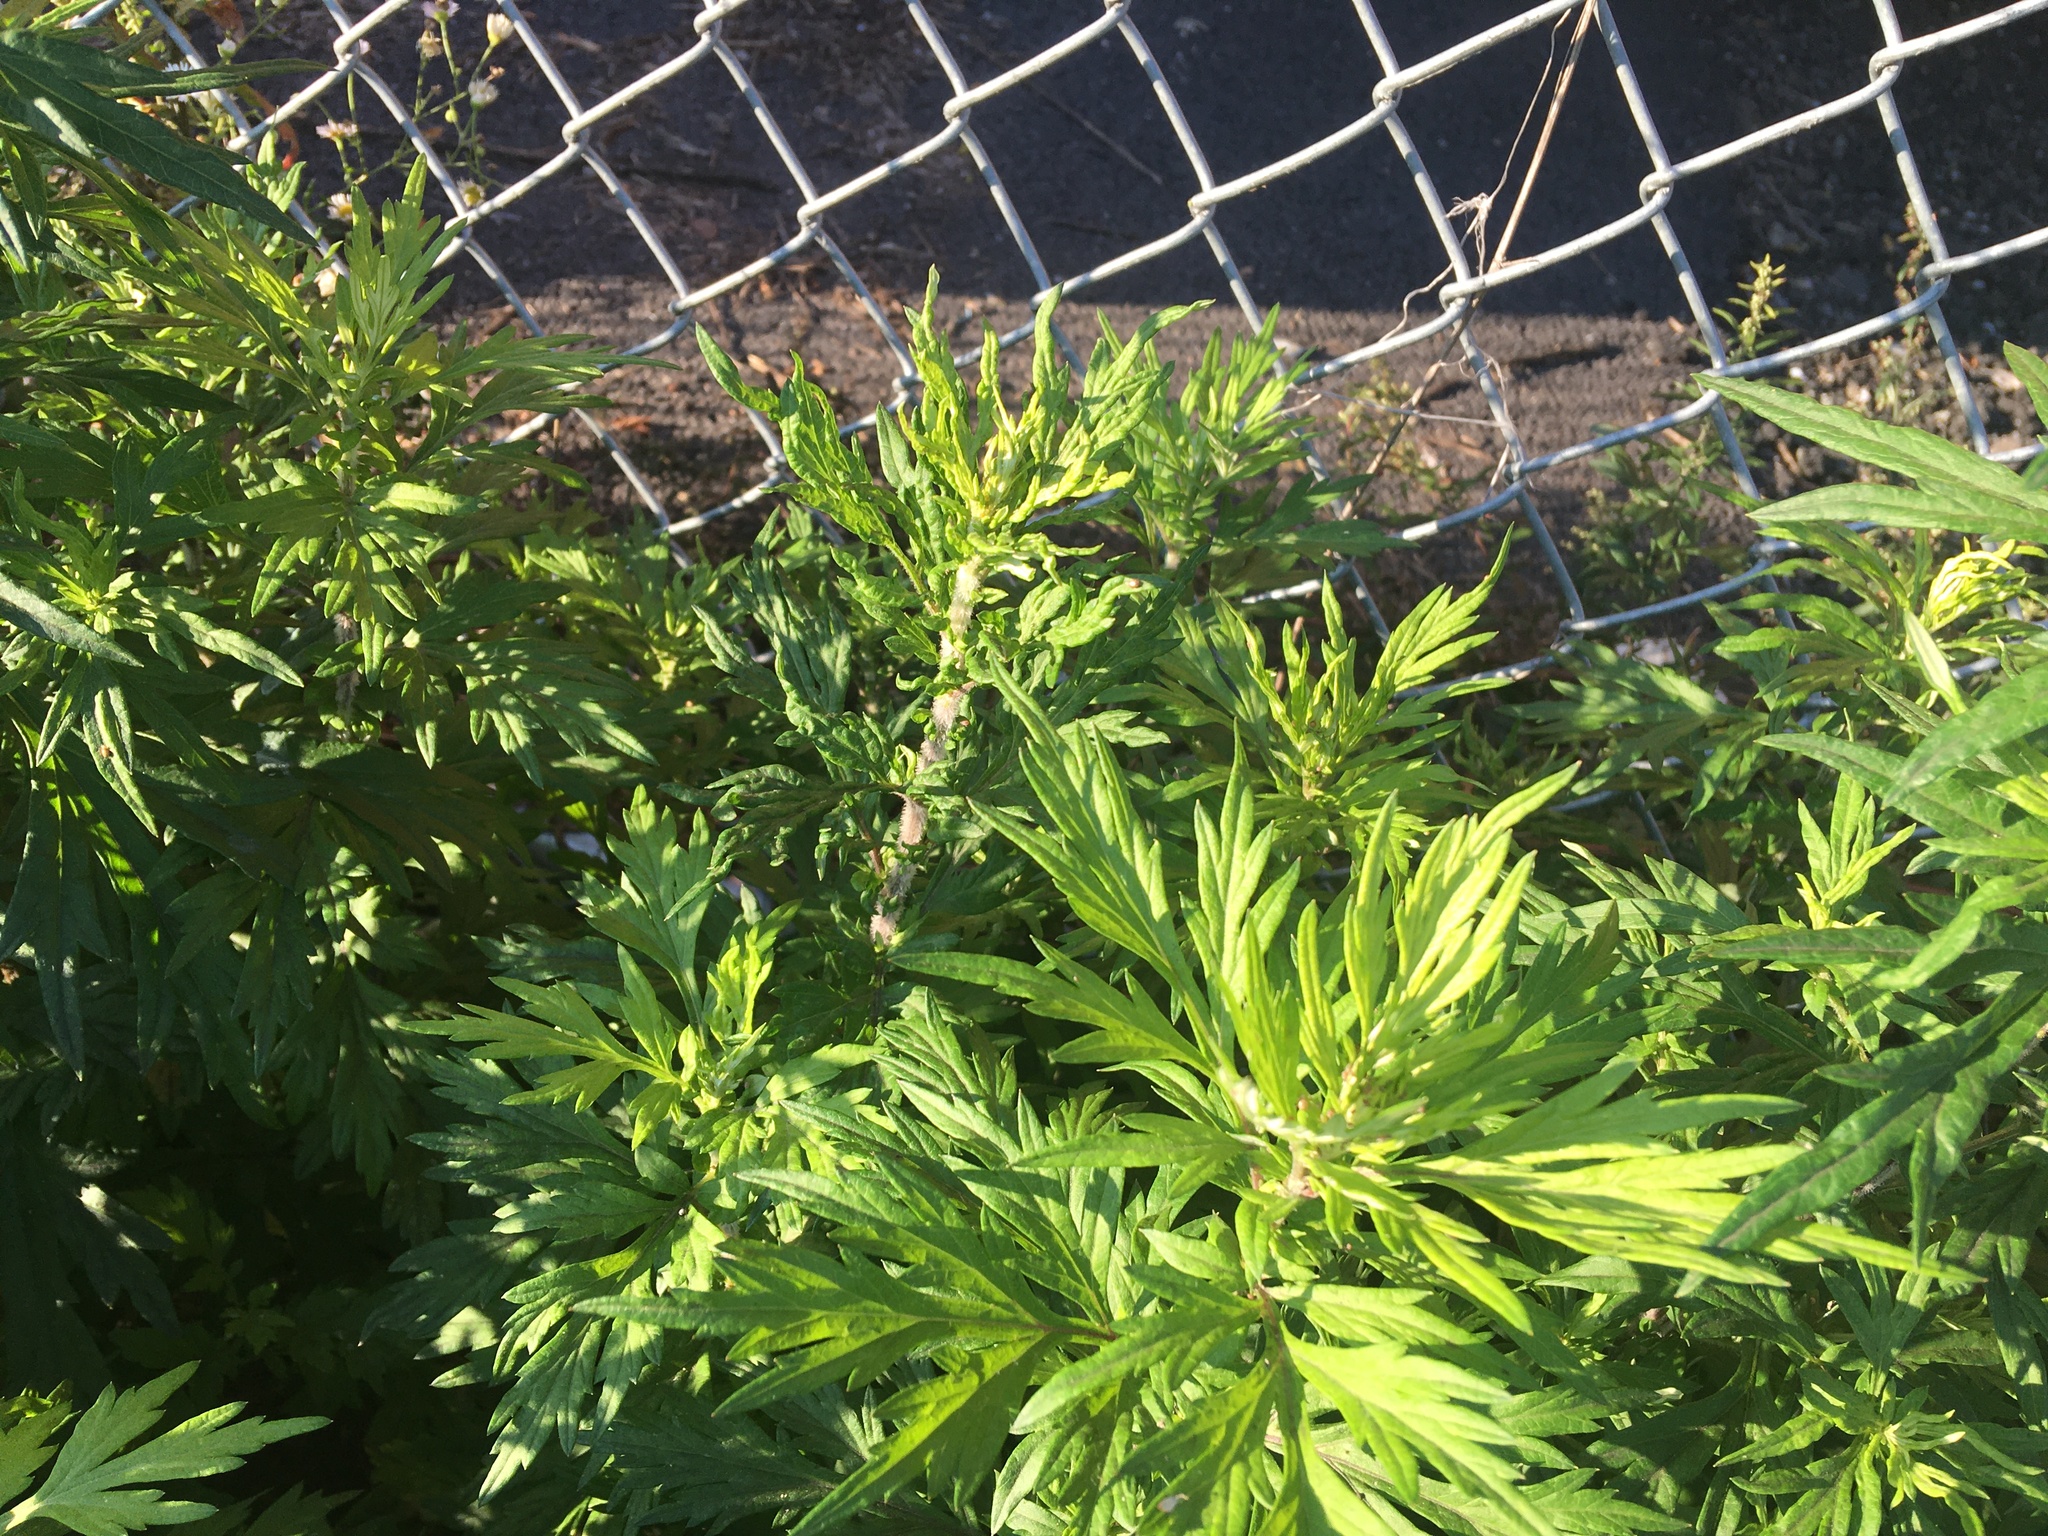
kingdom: Plantae
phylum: Tracheophyta
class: Magnoliopsida
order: Asterales
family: Asteraceae
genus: Artemisia
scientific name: Artemisia vulgaris
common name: Mugwort
